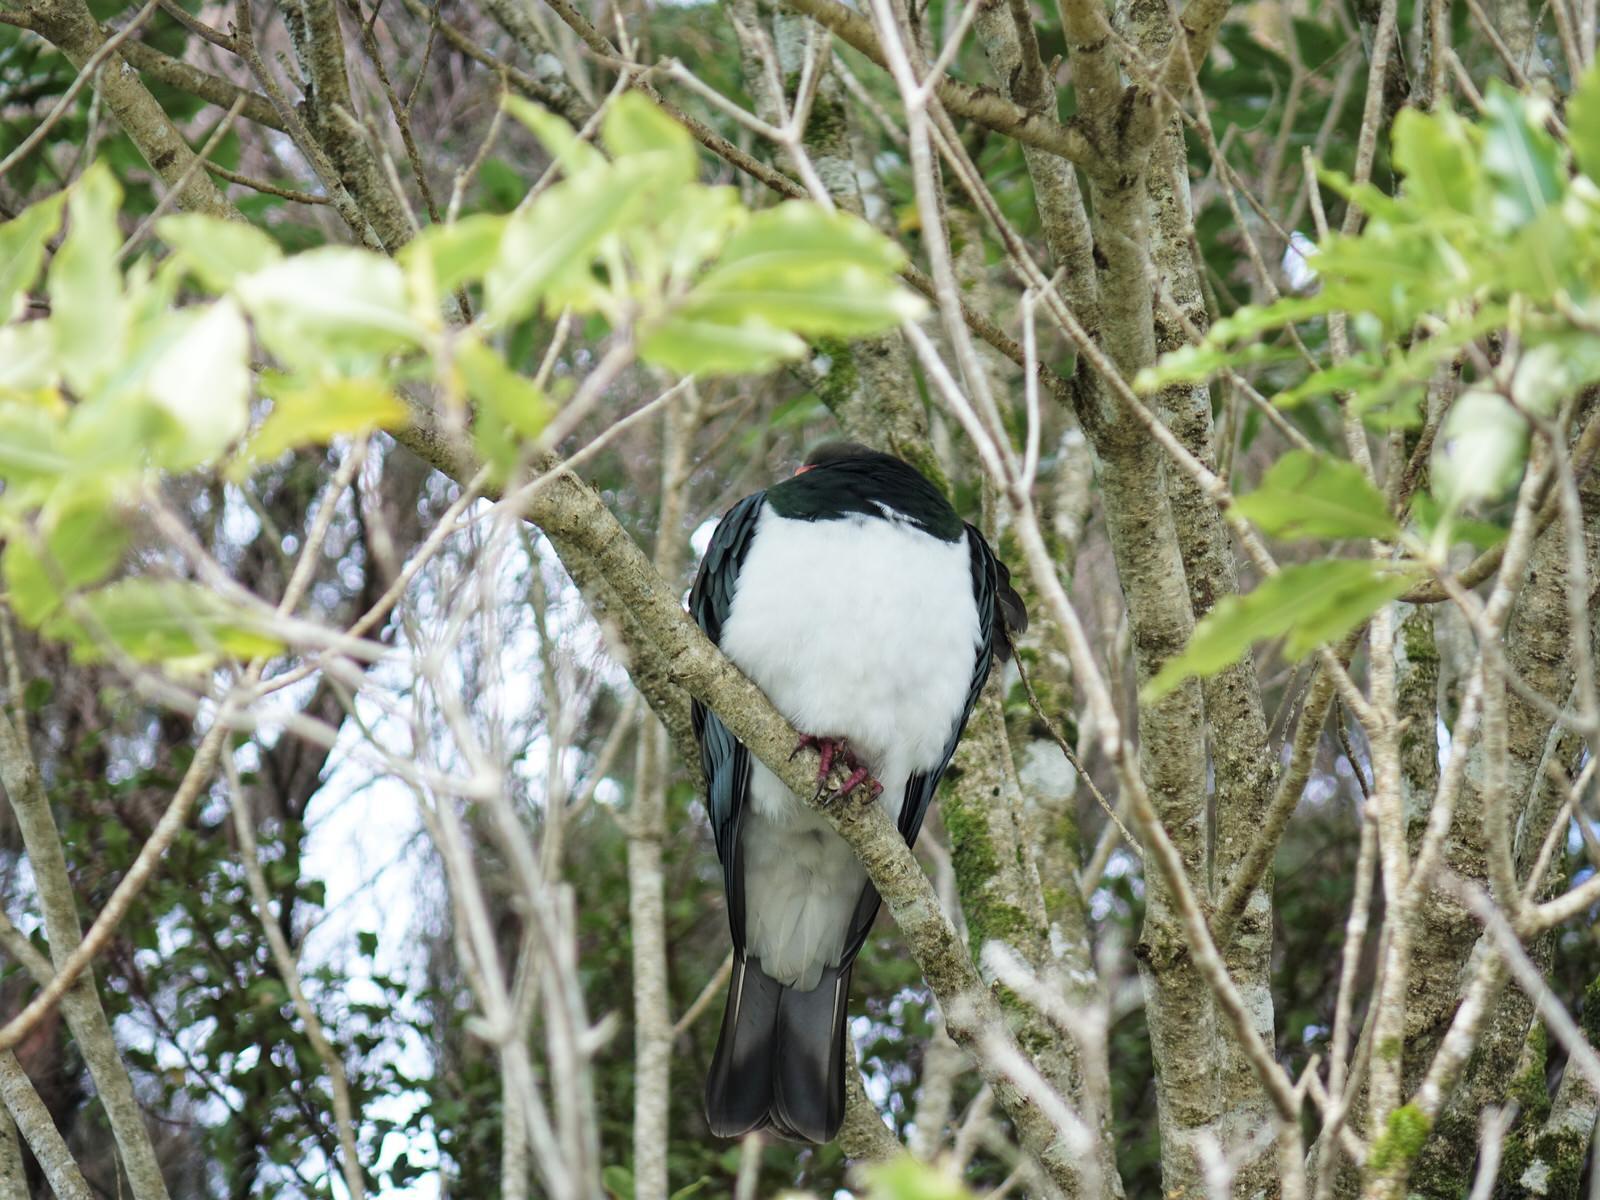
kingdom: Animalia
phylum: Chordata
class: Aves
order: Columbiformes
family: Columbidae
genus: Hemiphaga
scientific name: Hemiphaga novaeseelandiae
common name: New zealand pigeon
